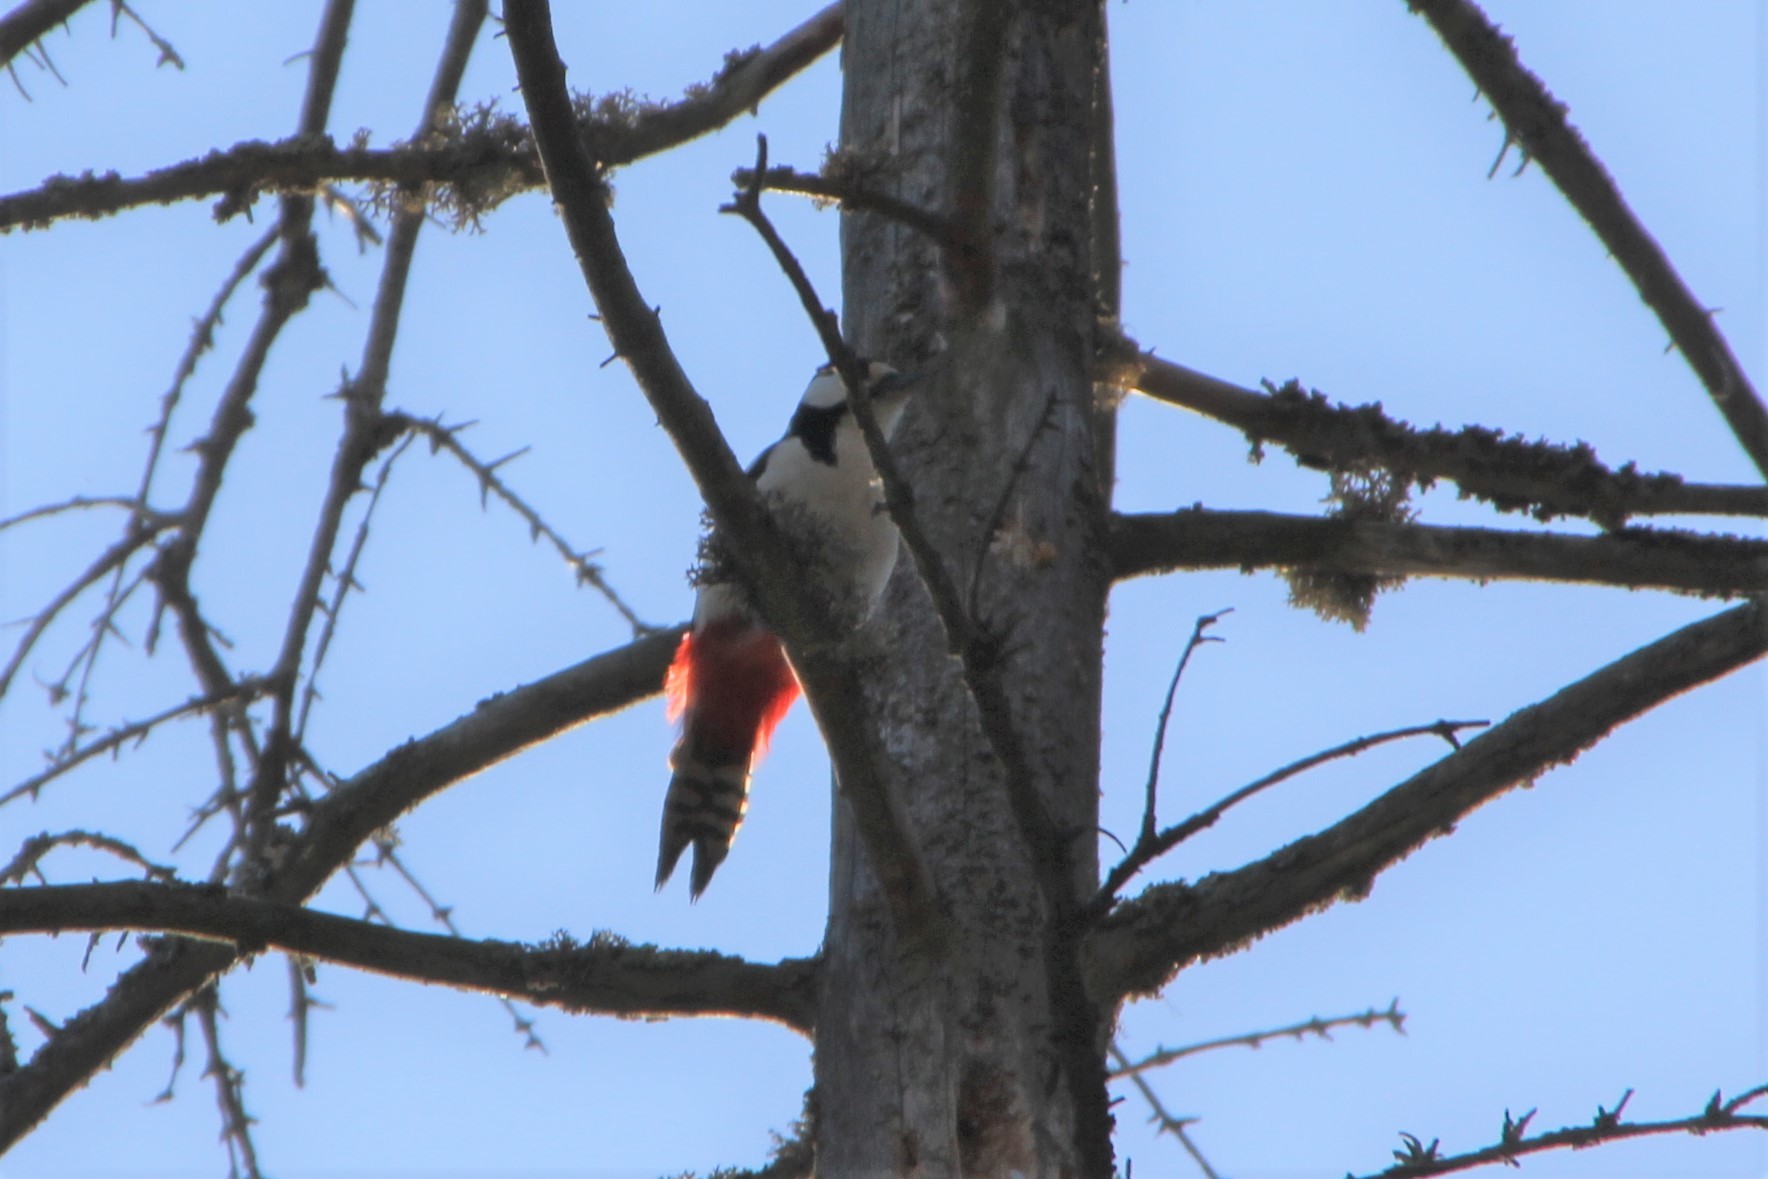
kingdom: Animalia
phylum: Chordata
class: Aves
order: Piciformes
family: Picidae
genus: Dendrocopos
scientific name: Dendrocopos major
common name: Great spotted woodpecker
